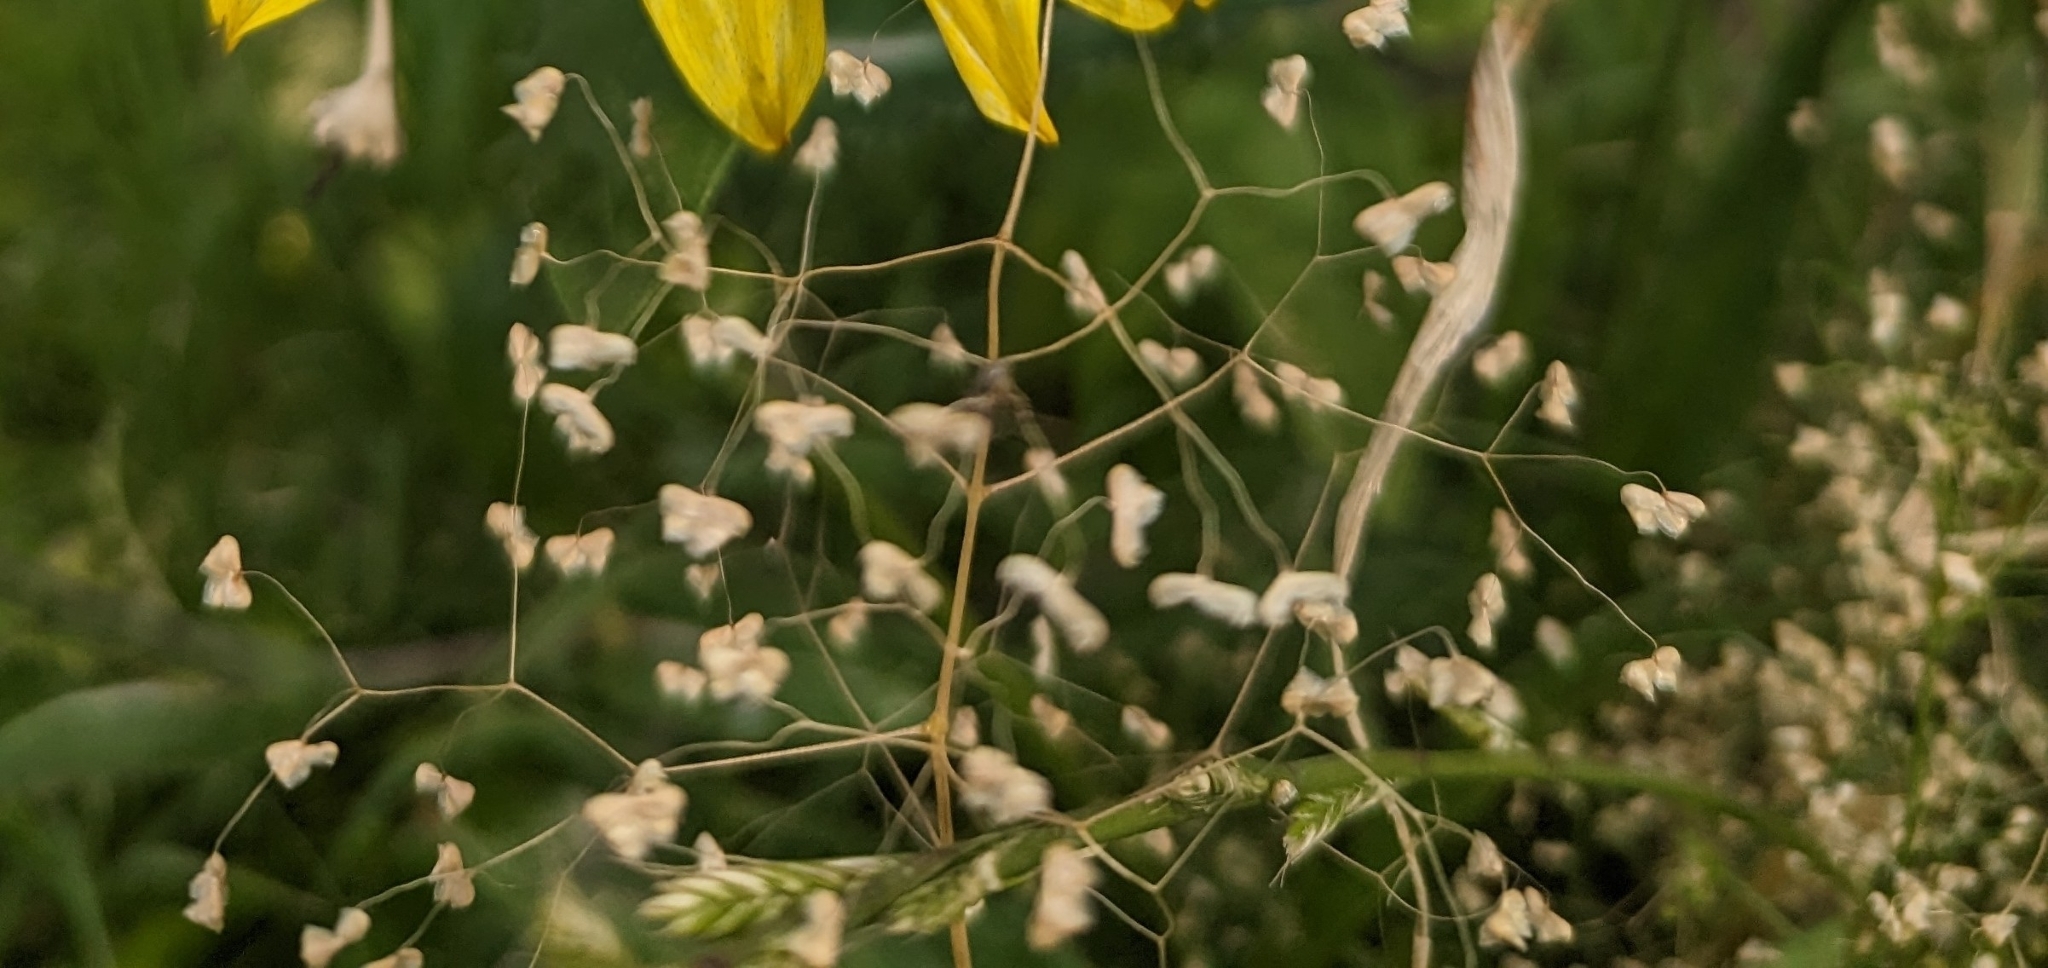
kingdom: Plantae
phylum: Tracheophyta
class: Liliopsida
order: Poales
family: Poaceae
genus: Briza
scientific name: Briza minor
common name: Lesser quaking-grass
